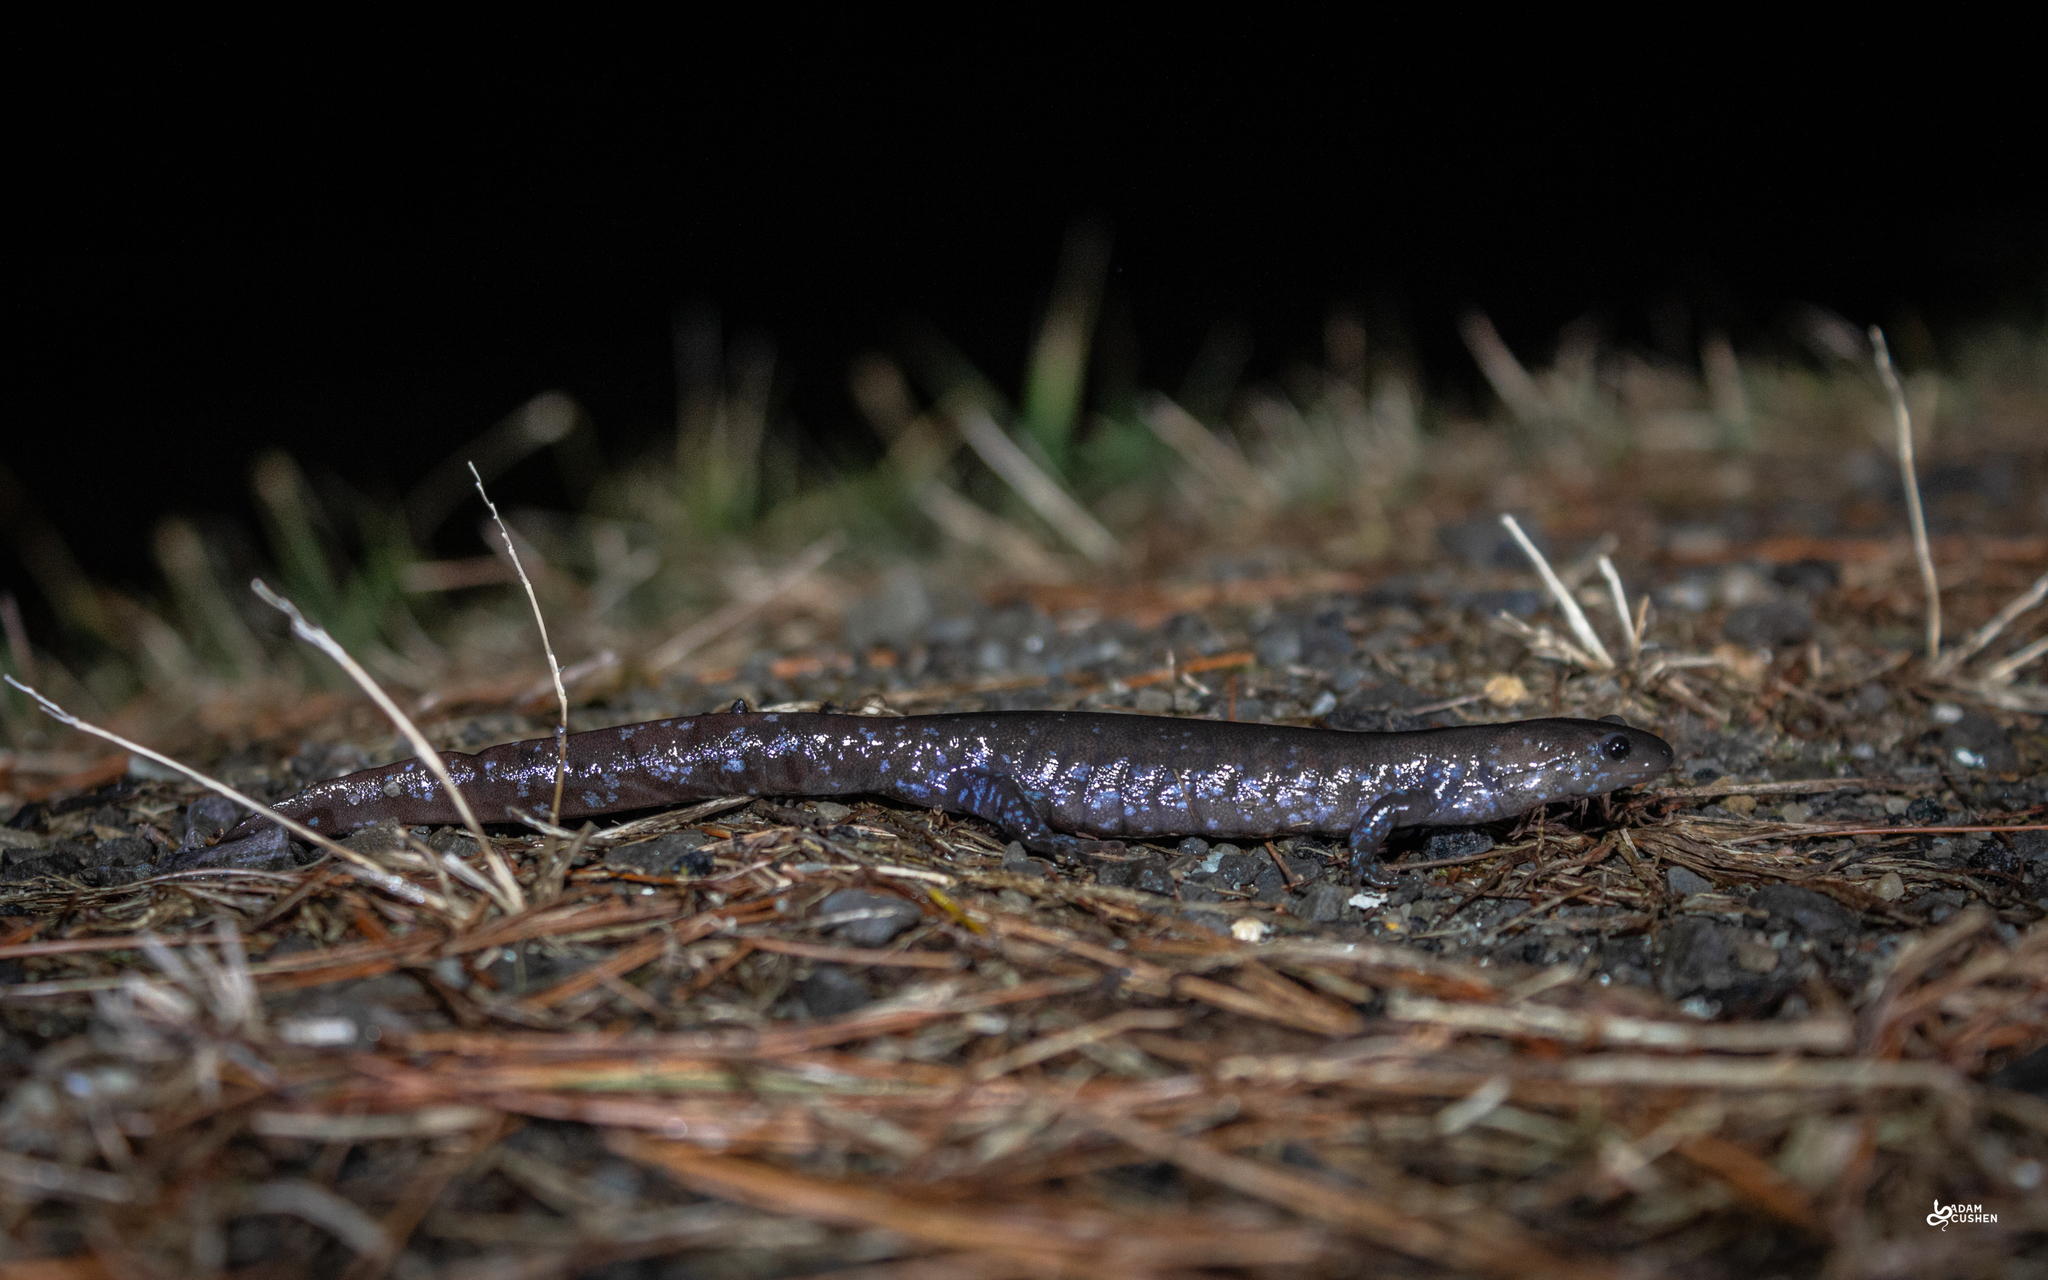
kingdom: Animalia
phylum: Chordata
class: Amphibia
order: Caudata
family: Ambystomatidae
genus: Ambystoma
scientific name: Ambystoma laterale
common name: Blue-spotted salamander
